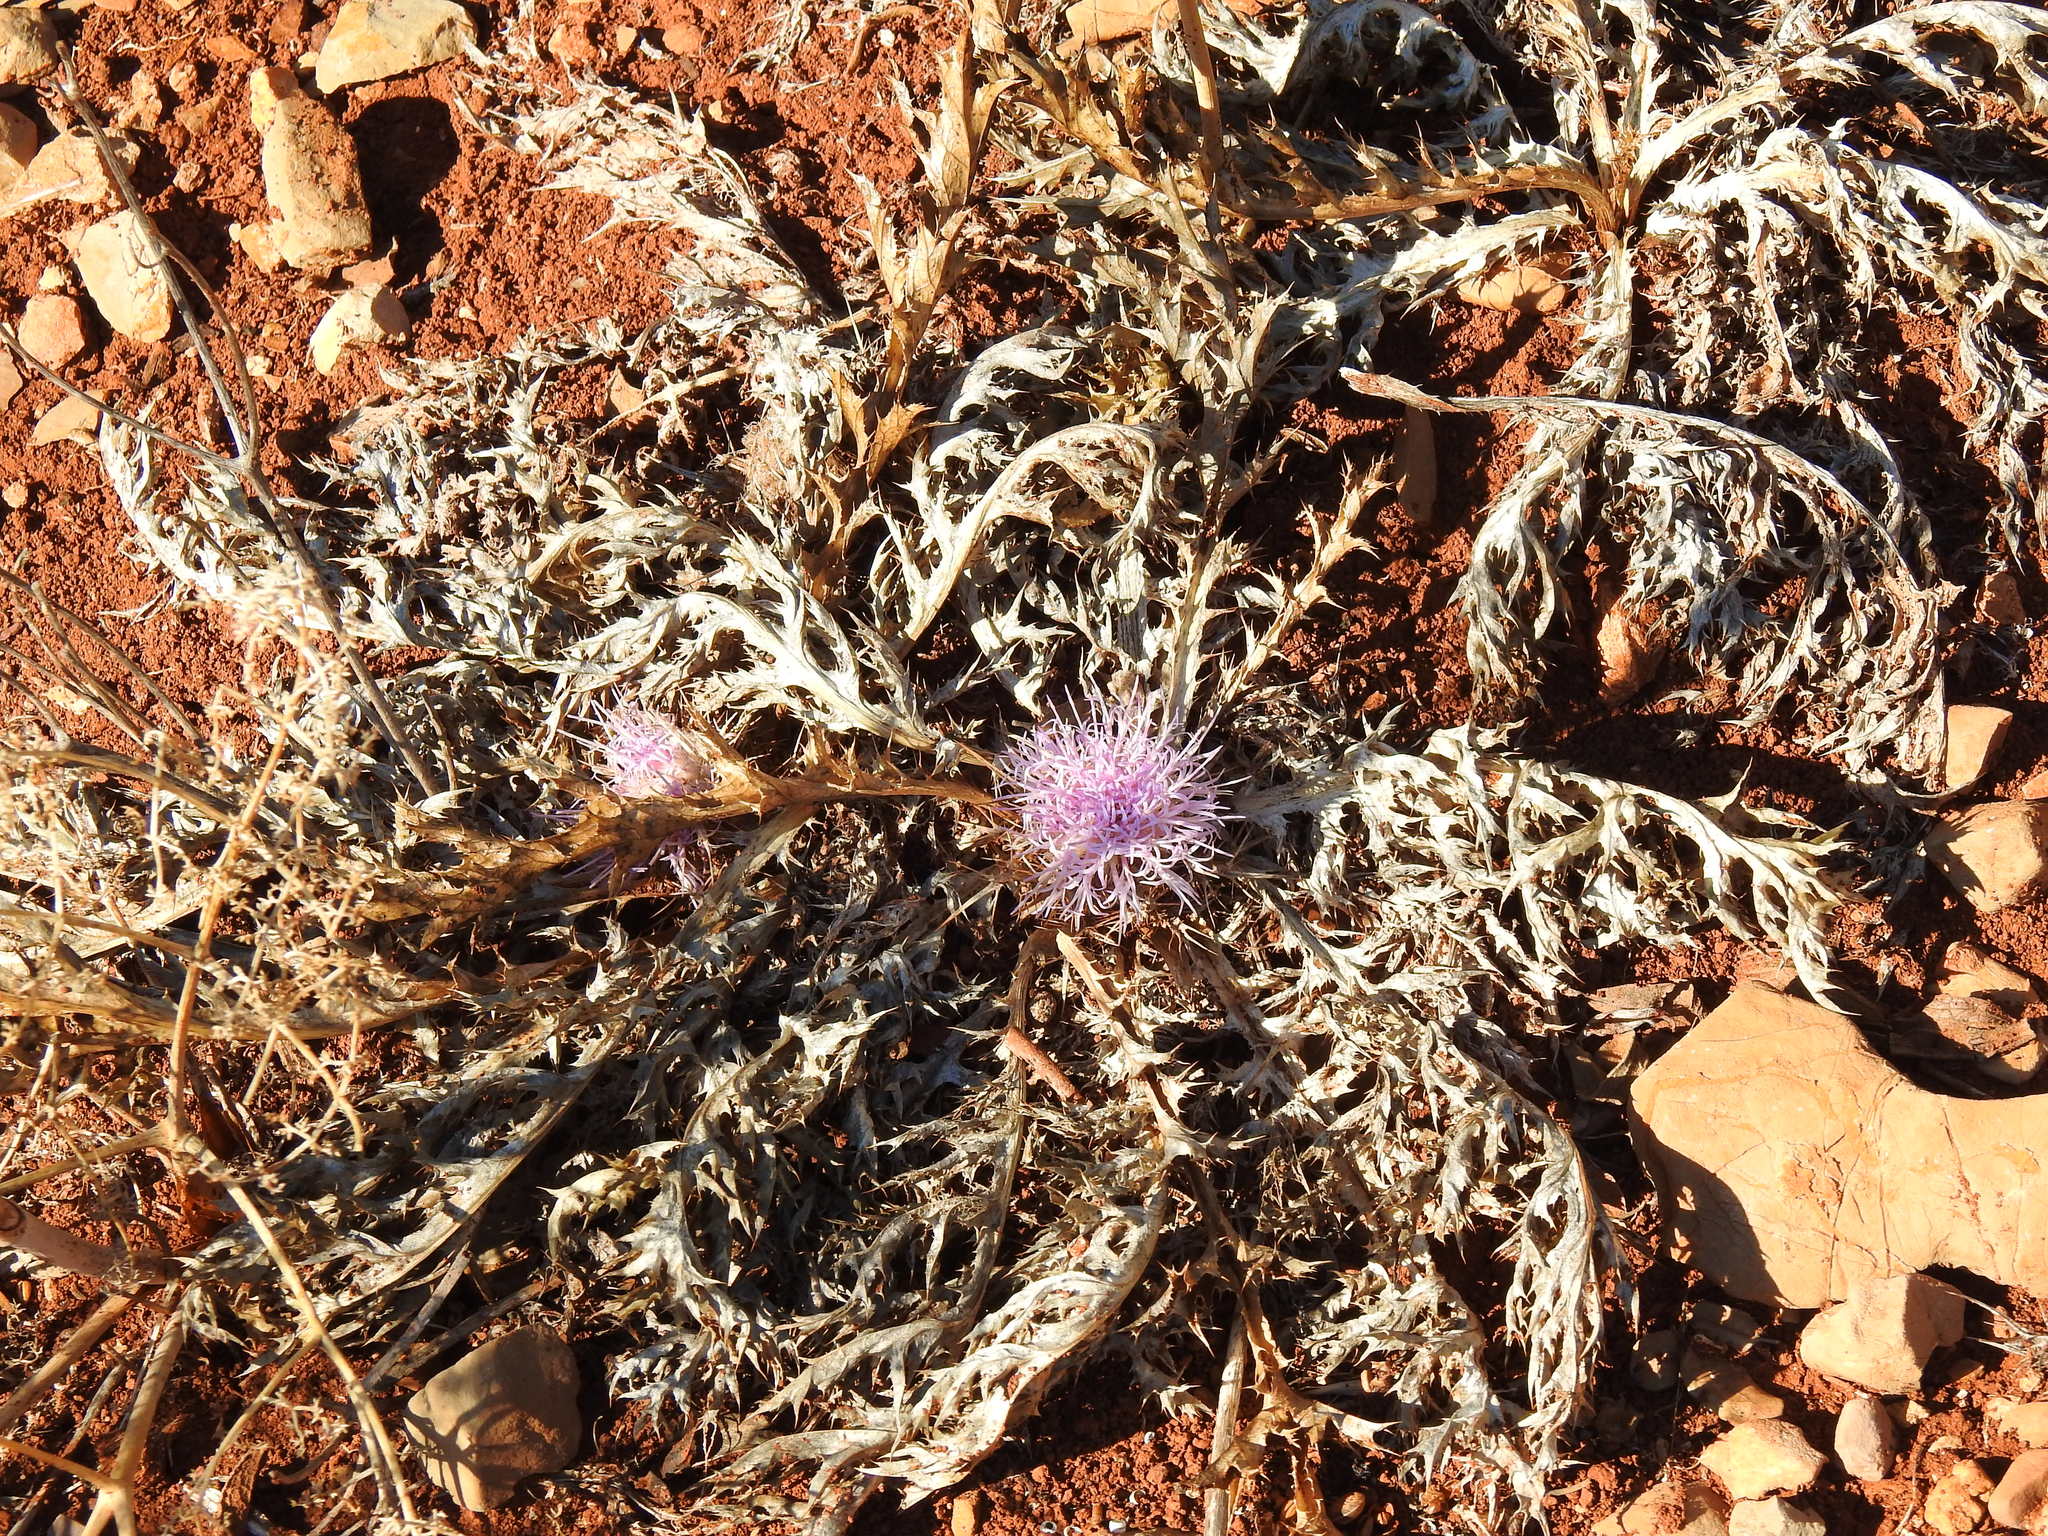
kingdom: Plantae
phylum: Tracheophyta
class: Magnoliopsida
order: Asterales
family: Asteraceae
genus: Chamaeleon
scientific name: Chamaeleon gummifer
